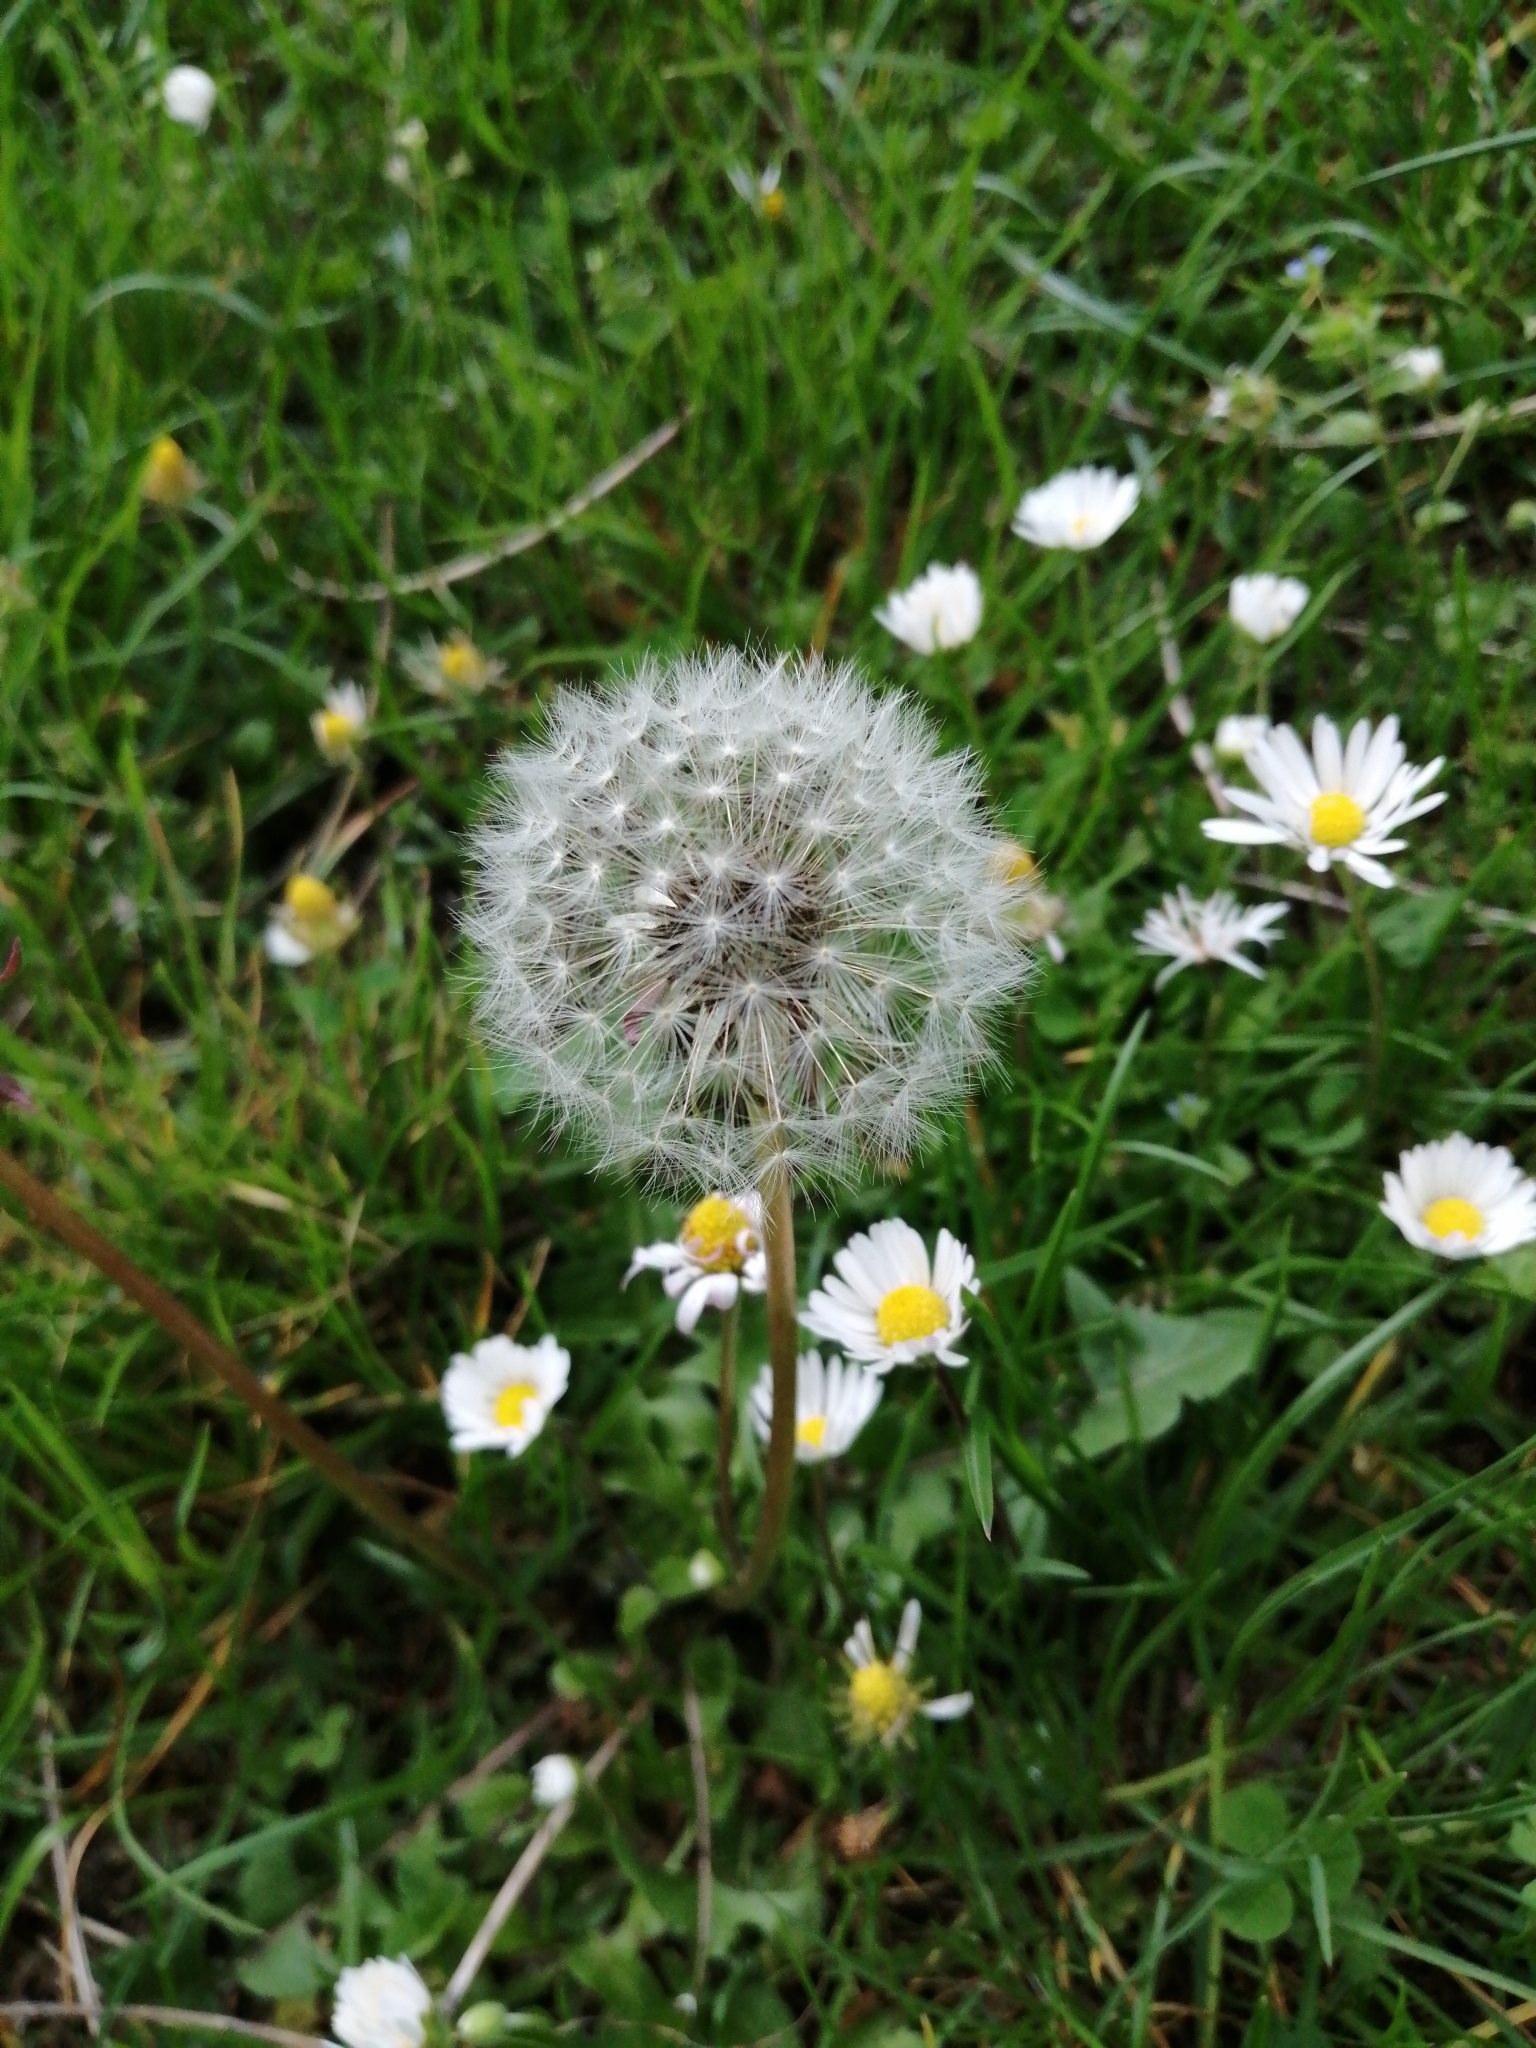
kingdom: Plantae
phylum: Tracheophyta
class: Magnoliopsida
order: Asterales
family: Asteraceae
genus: Taraxacum
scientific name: Taraxacum officinale
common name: Common dandelion
